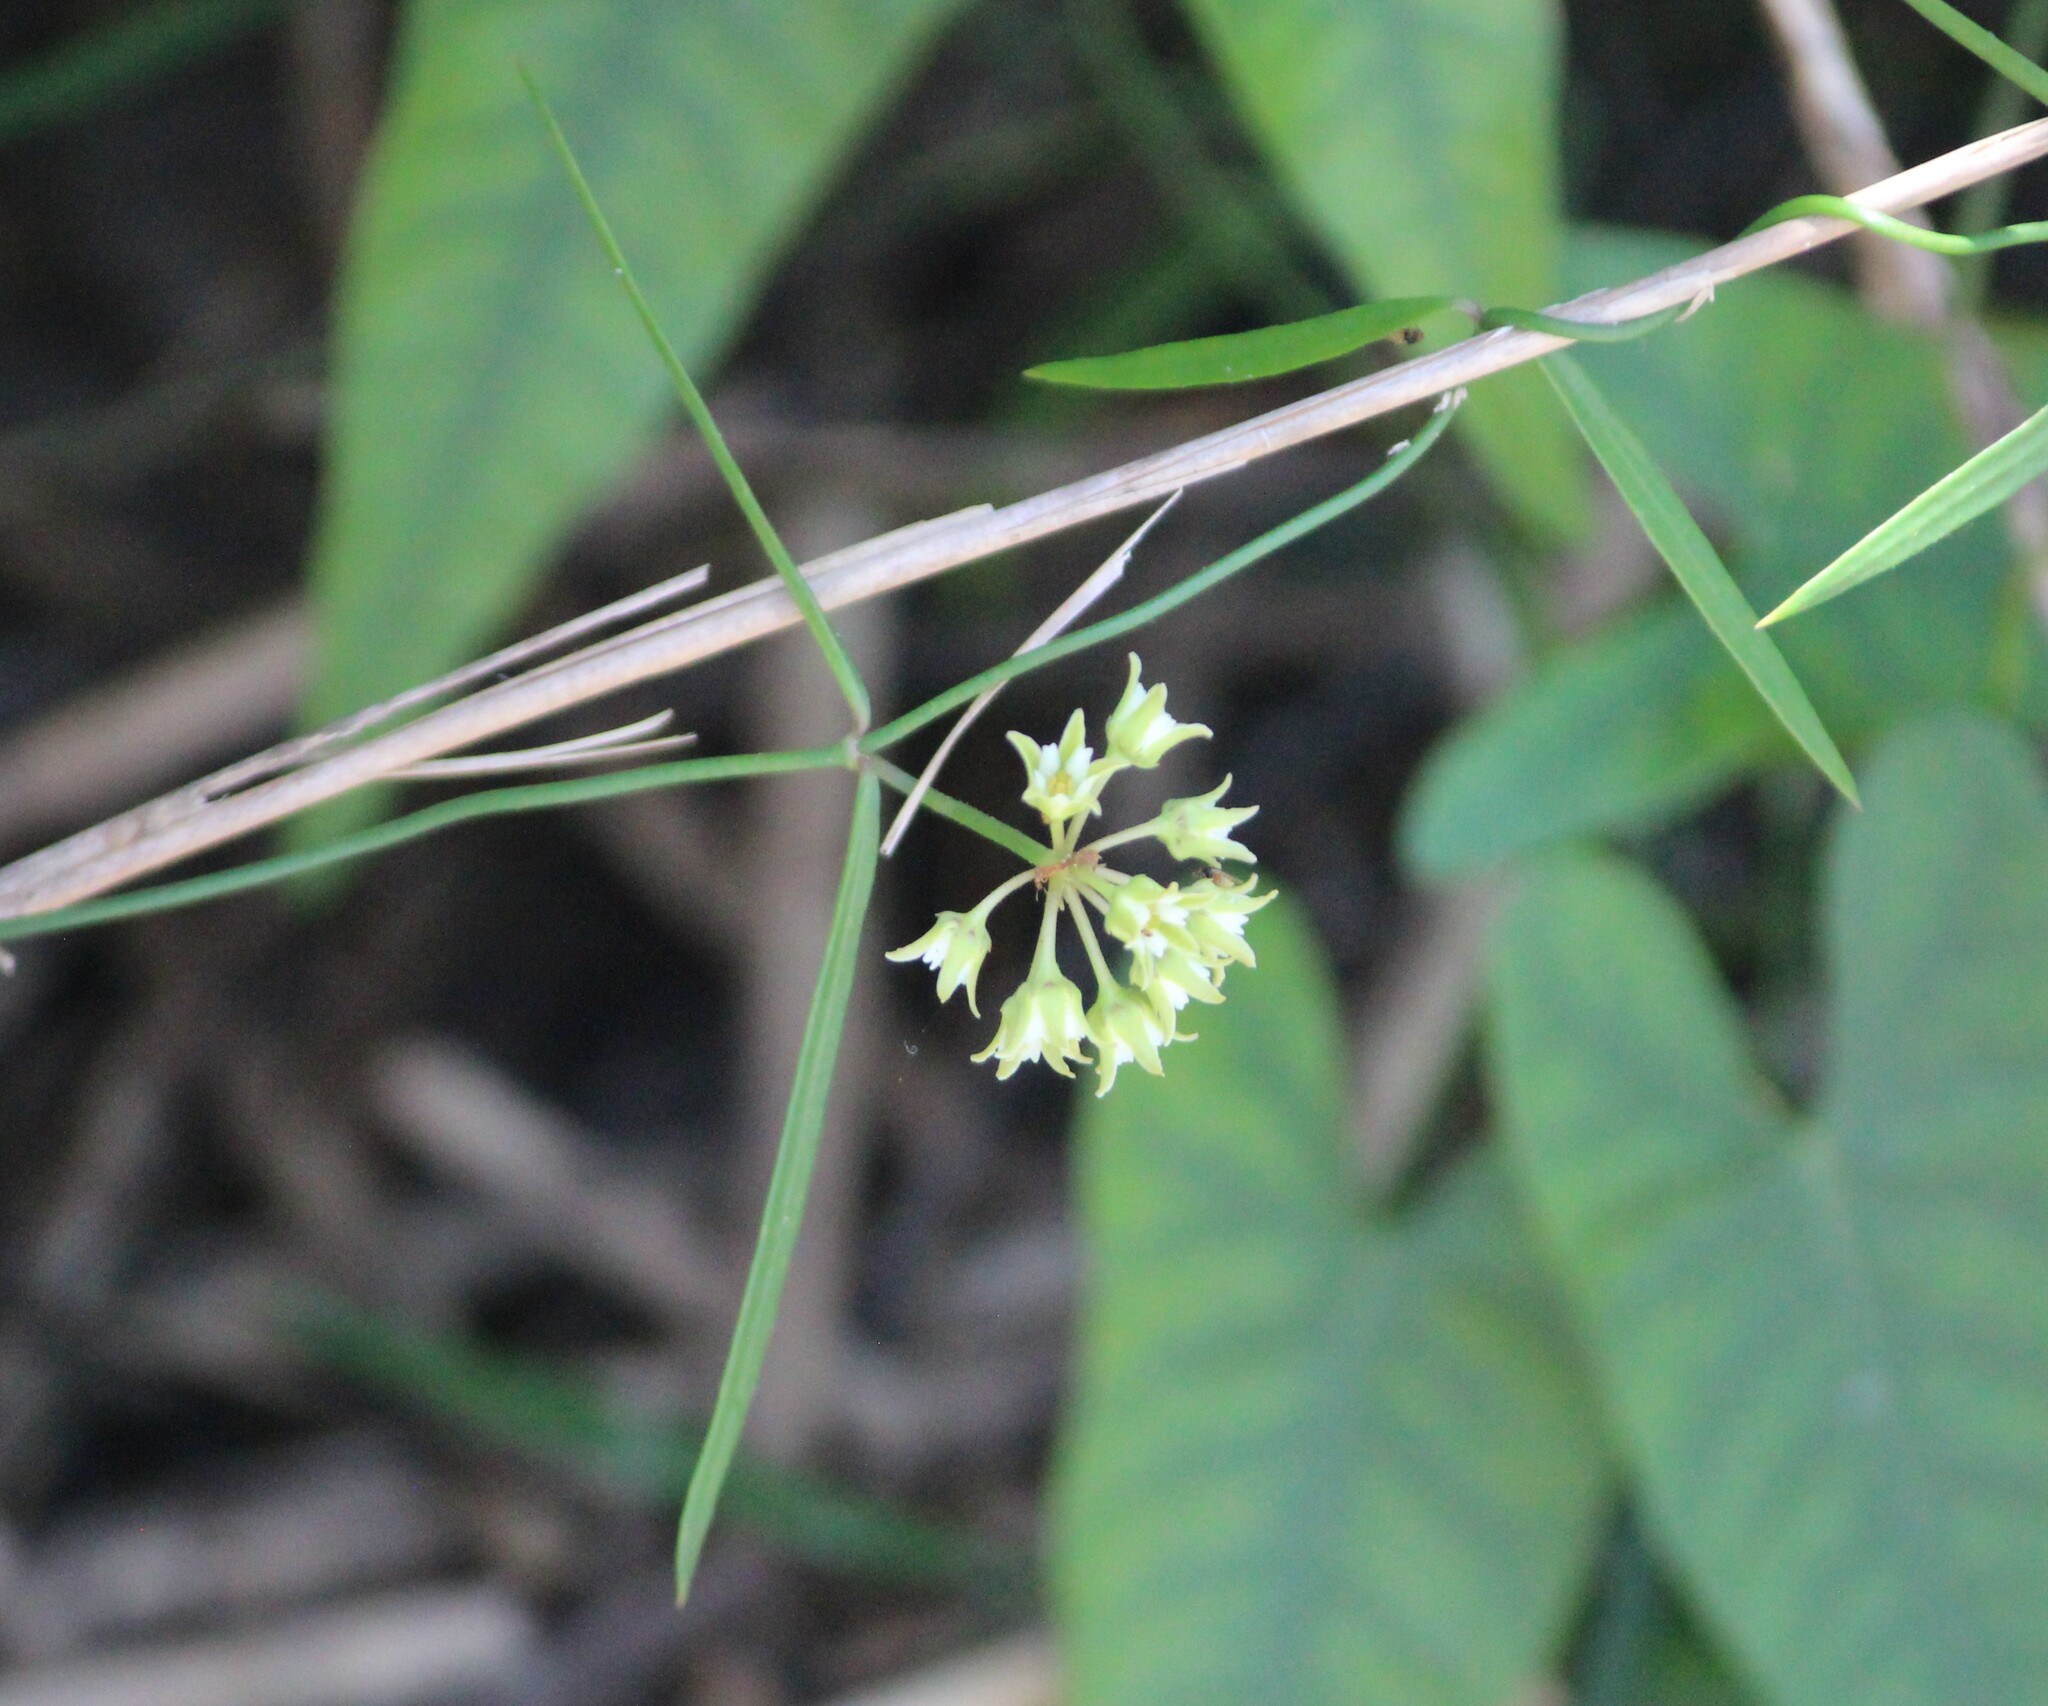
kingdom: Plantae
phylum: Tracheophyta
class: Magnoliopsida
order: Gentianales
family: Apocynaceae
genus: Pattalias
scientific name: Pattalias
